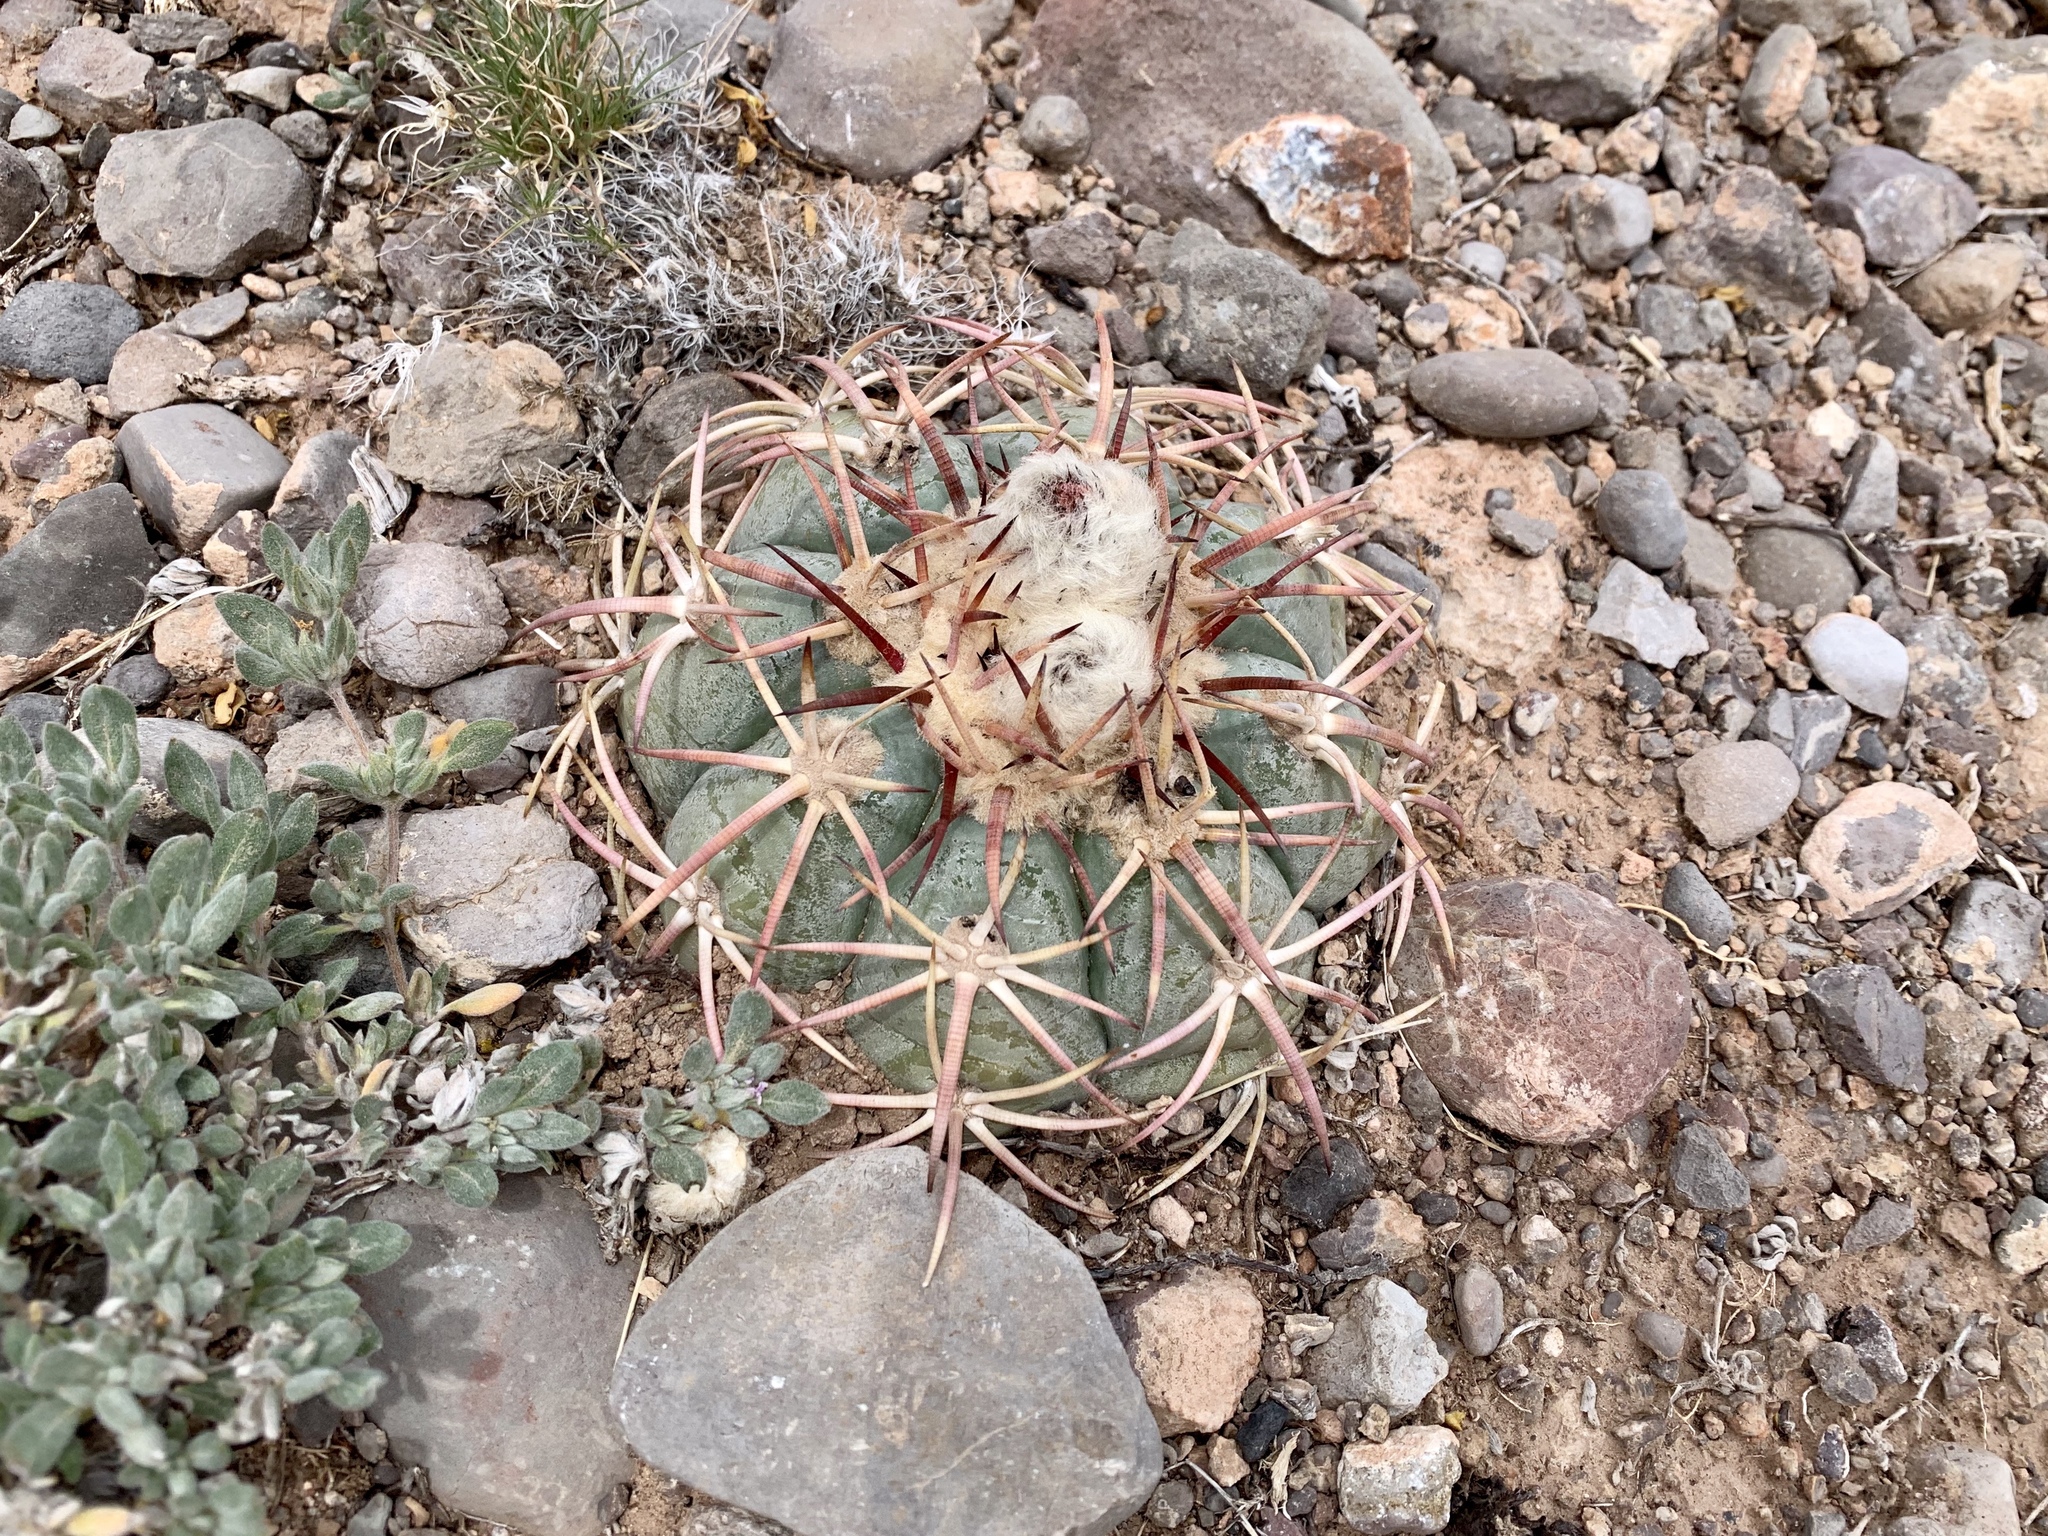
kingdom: Plantae
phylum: Tracheophyta
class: Magnoliopsida
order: Caryophyllales
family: Cactaceae
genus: Echinocactus
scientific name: Echinocactus horizonthalonius
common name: Devilshead
